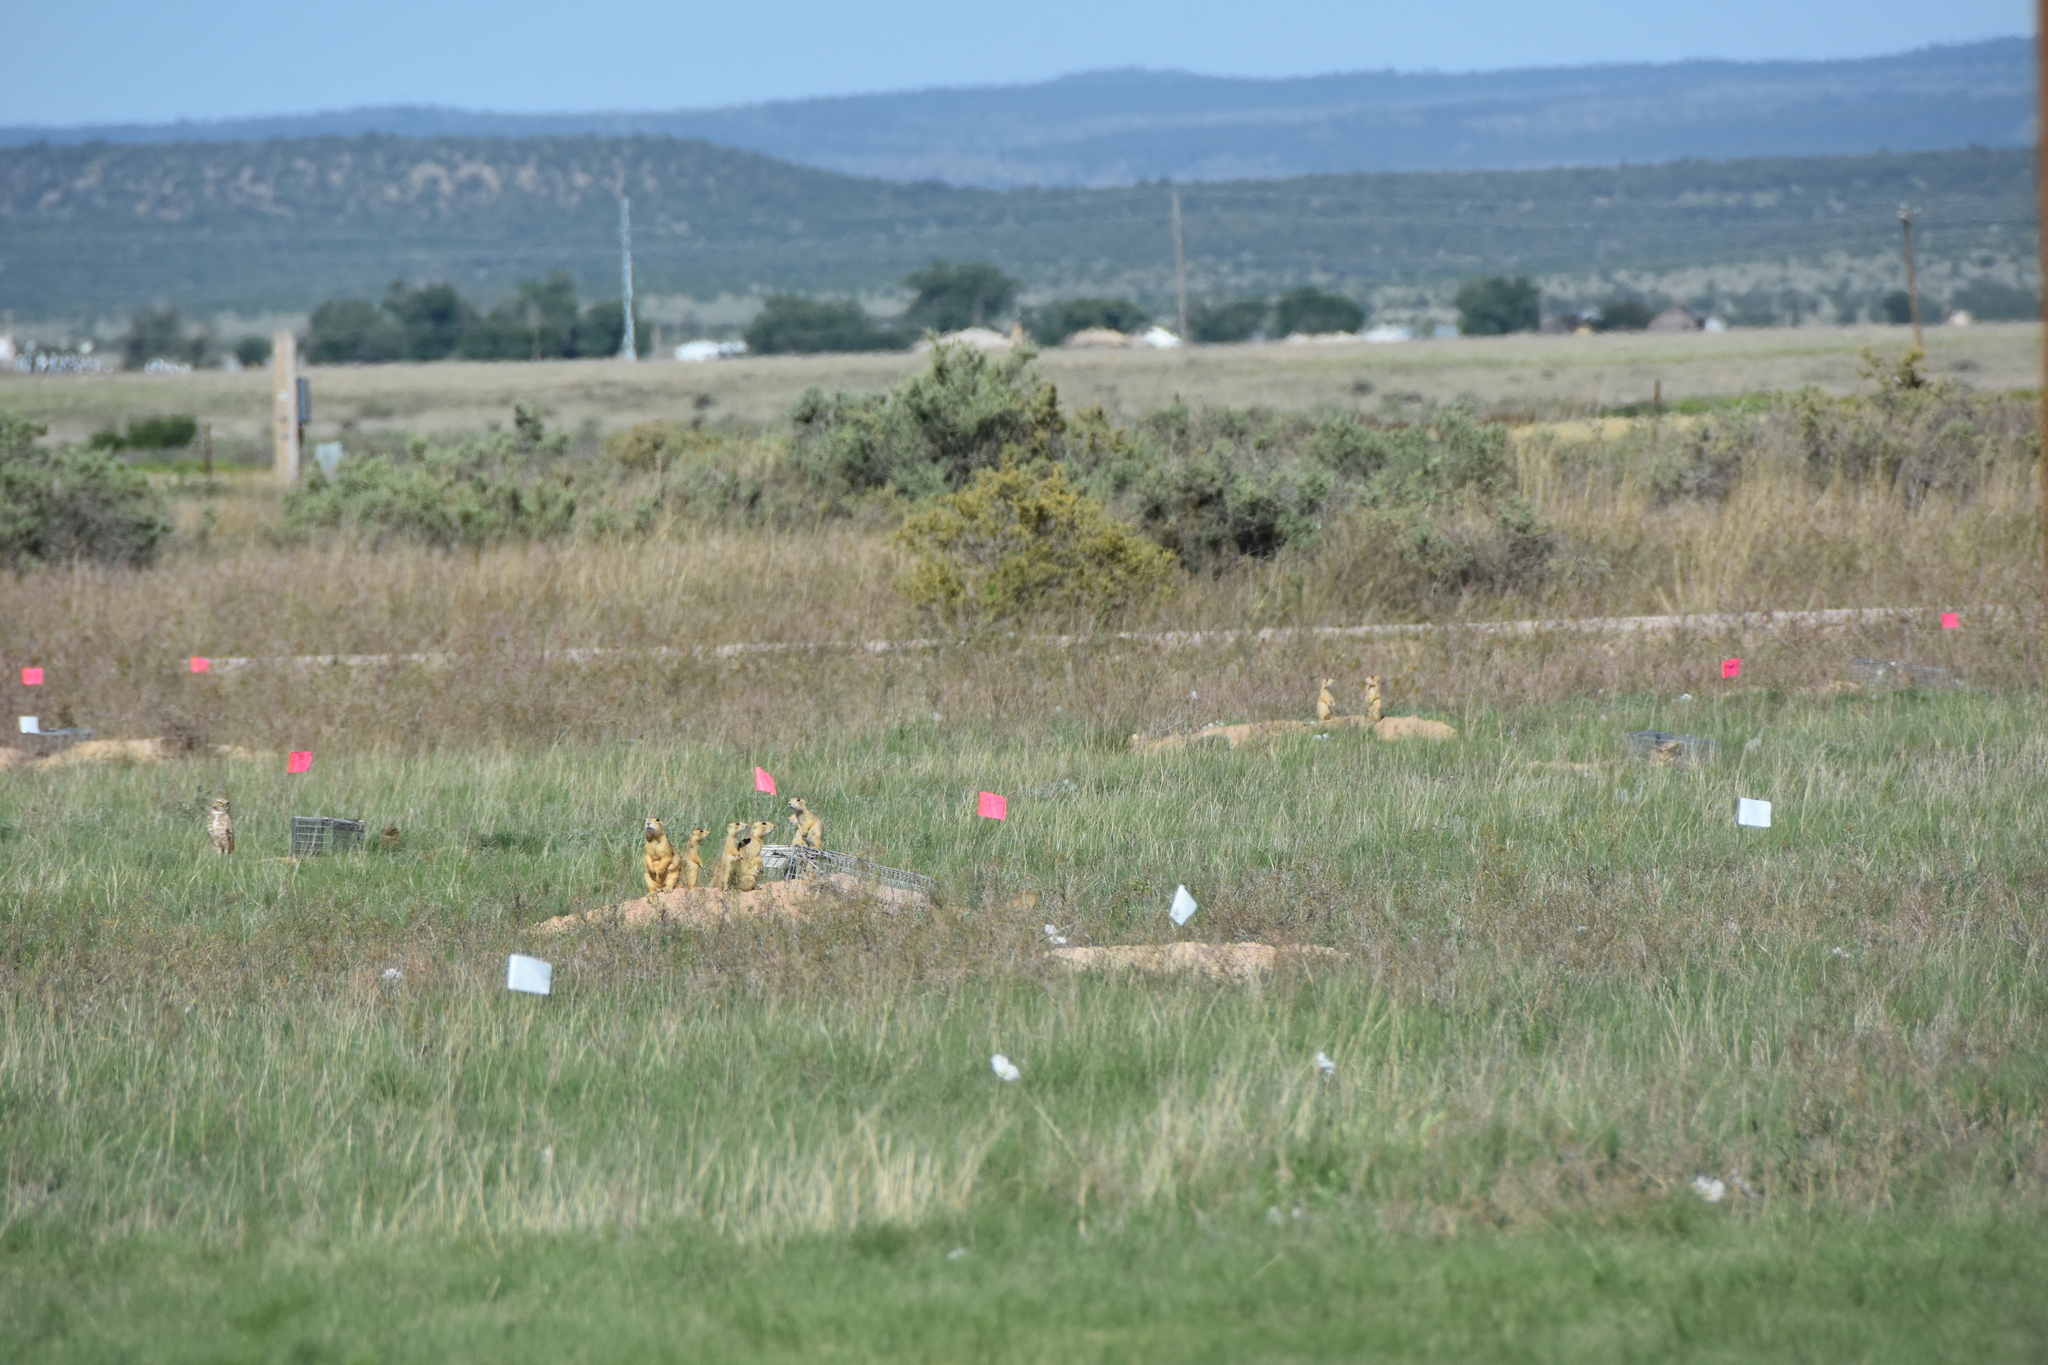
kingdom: Animalia
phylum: Chordata
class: Mammalia
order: Rodentia
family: Sciuridae
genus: Cynomys
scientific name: Cynomys gunnisoni
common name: Gunnison's prairie dog
